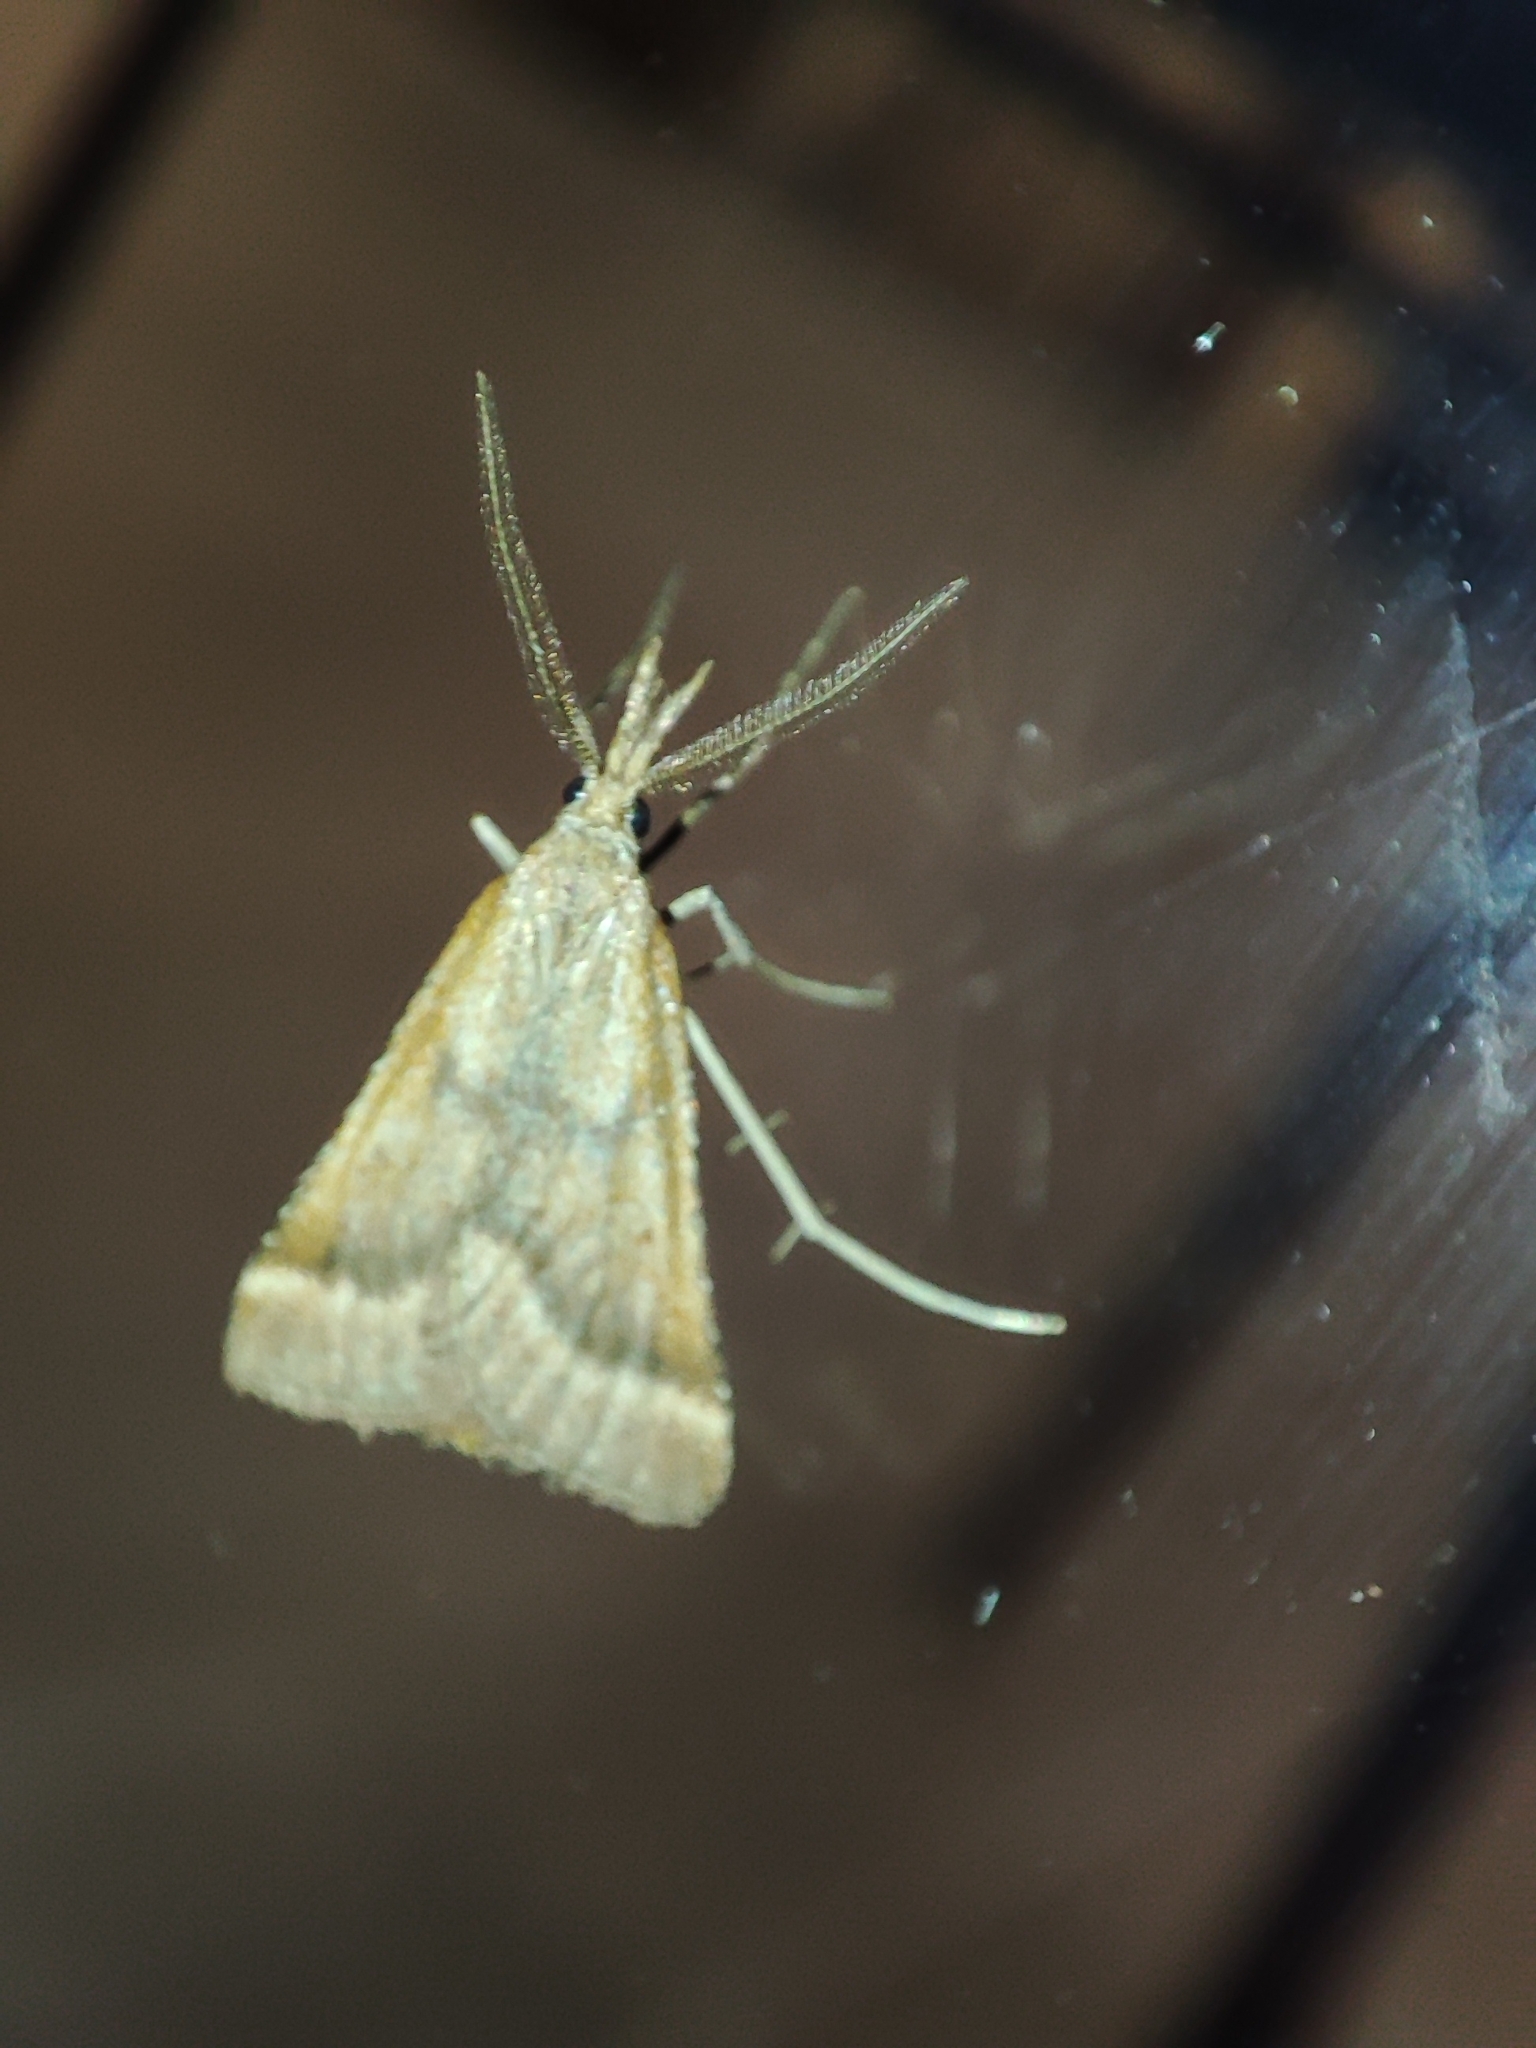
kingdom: Animalia
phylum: Arthropoda
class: Insecta
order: Lepidoptera
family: Pyralidae
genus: Synaphe
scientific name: Synaphe punctalis
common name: Long-legged tabby
